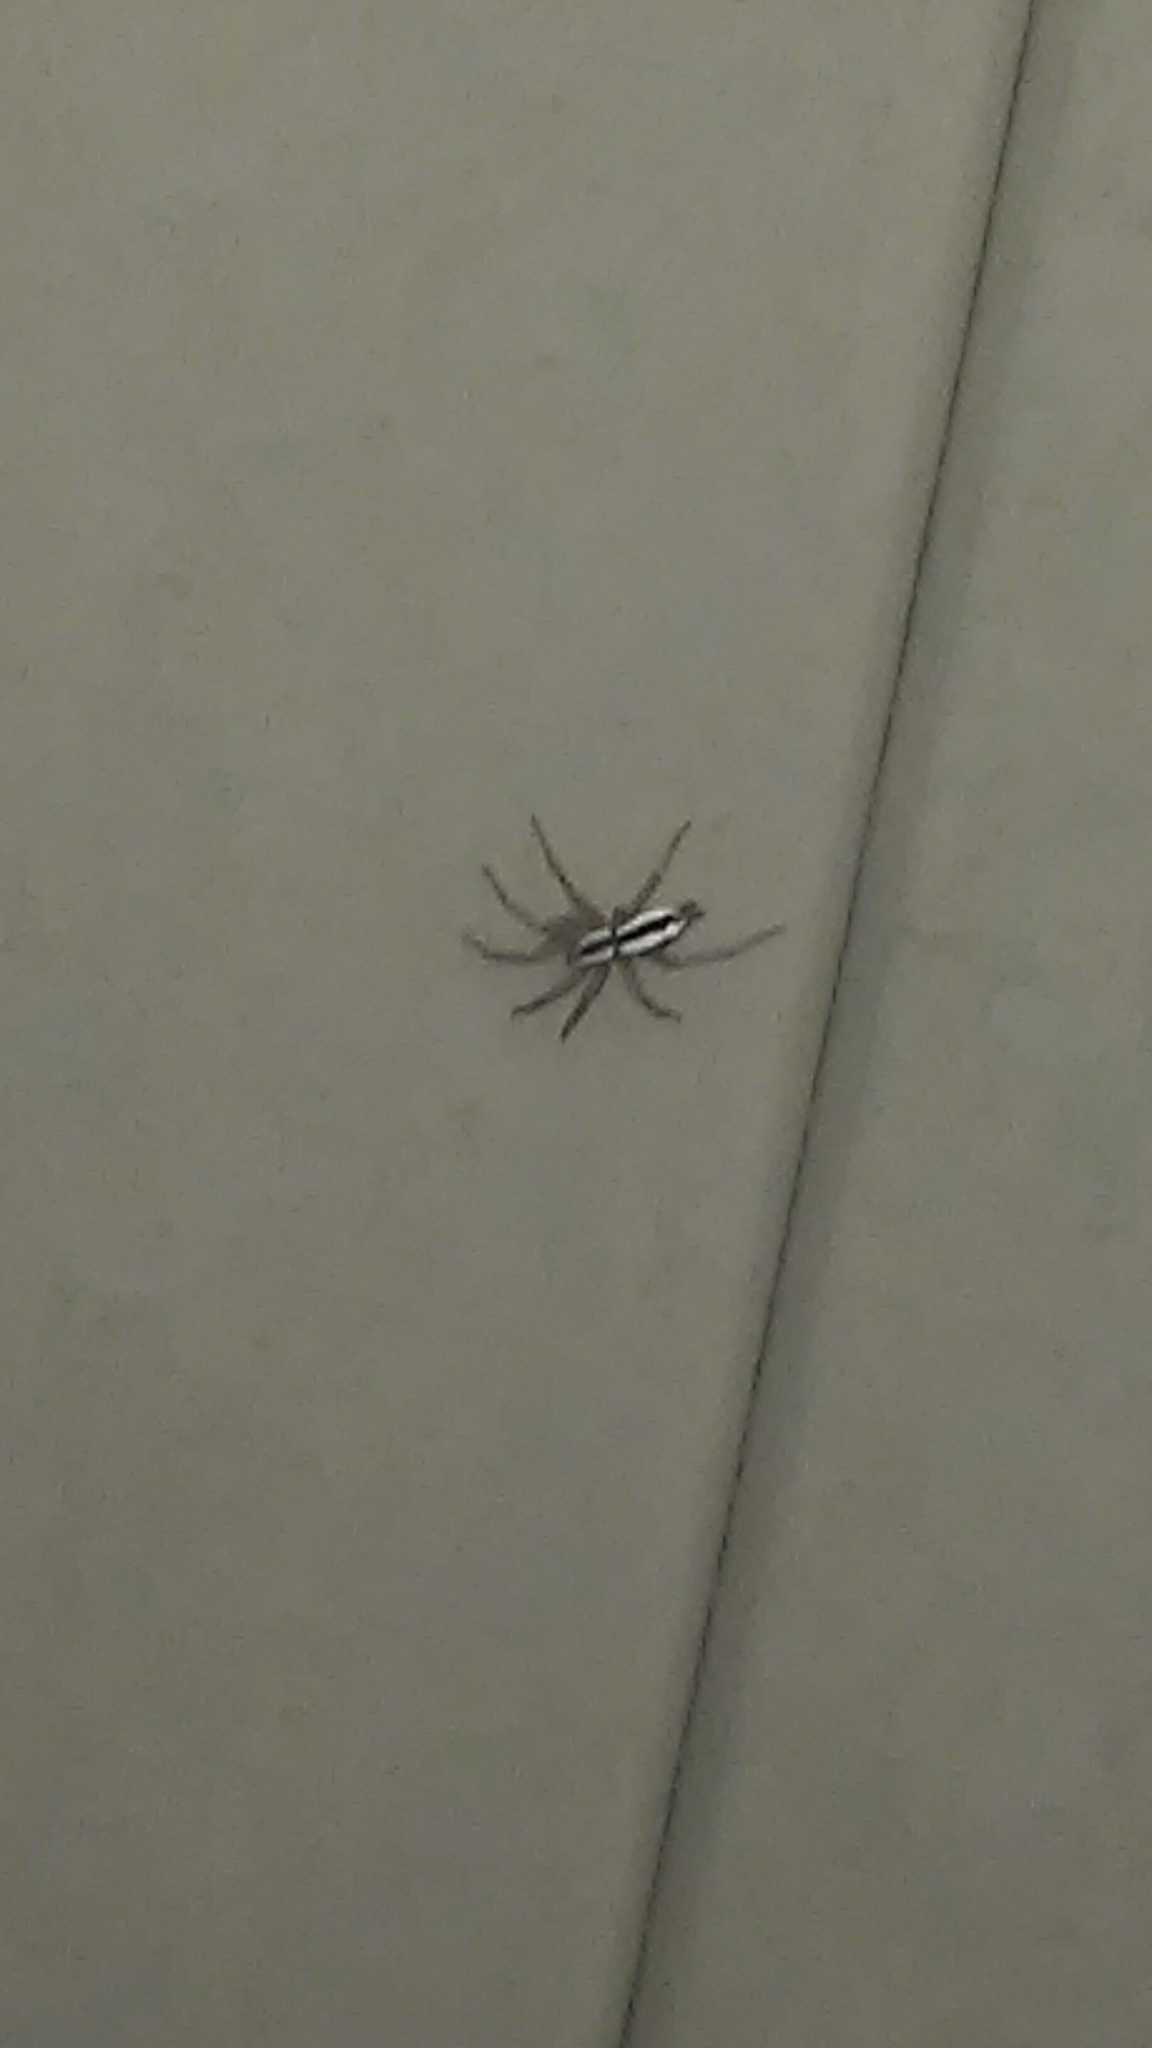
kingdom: Animalia
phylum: Arthropoda
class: Arachnida
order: Araneae
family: Gnaphosidae
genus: Cesonia
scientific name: Cesonia bilineata
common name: Two-lined stealthy ground spider
